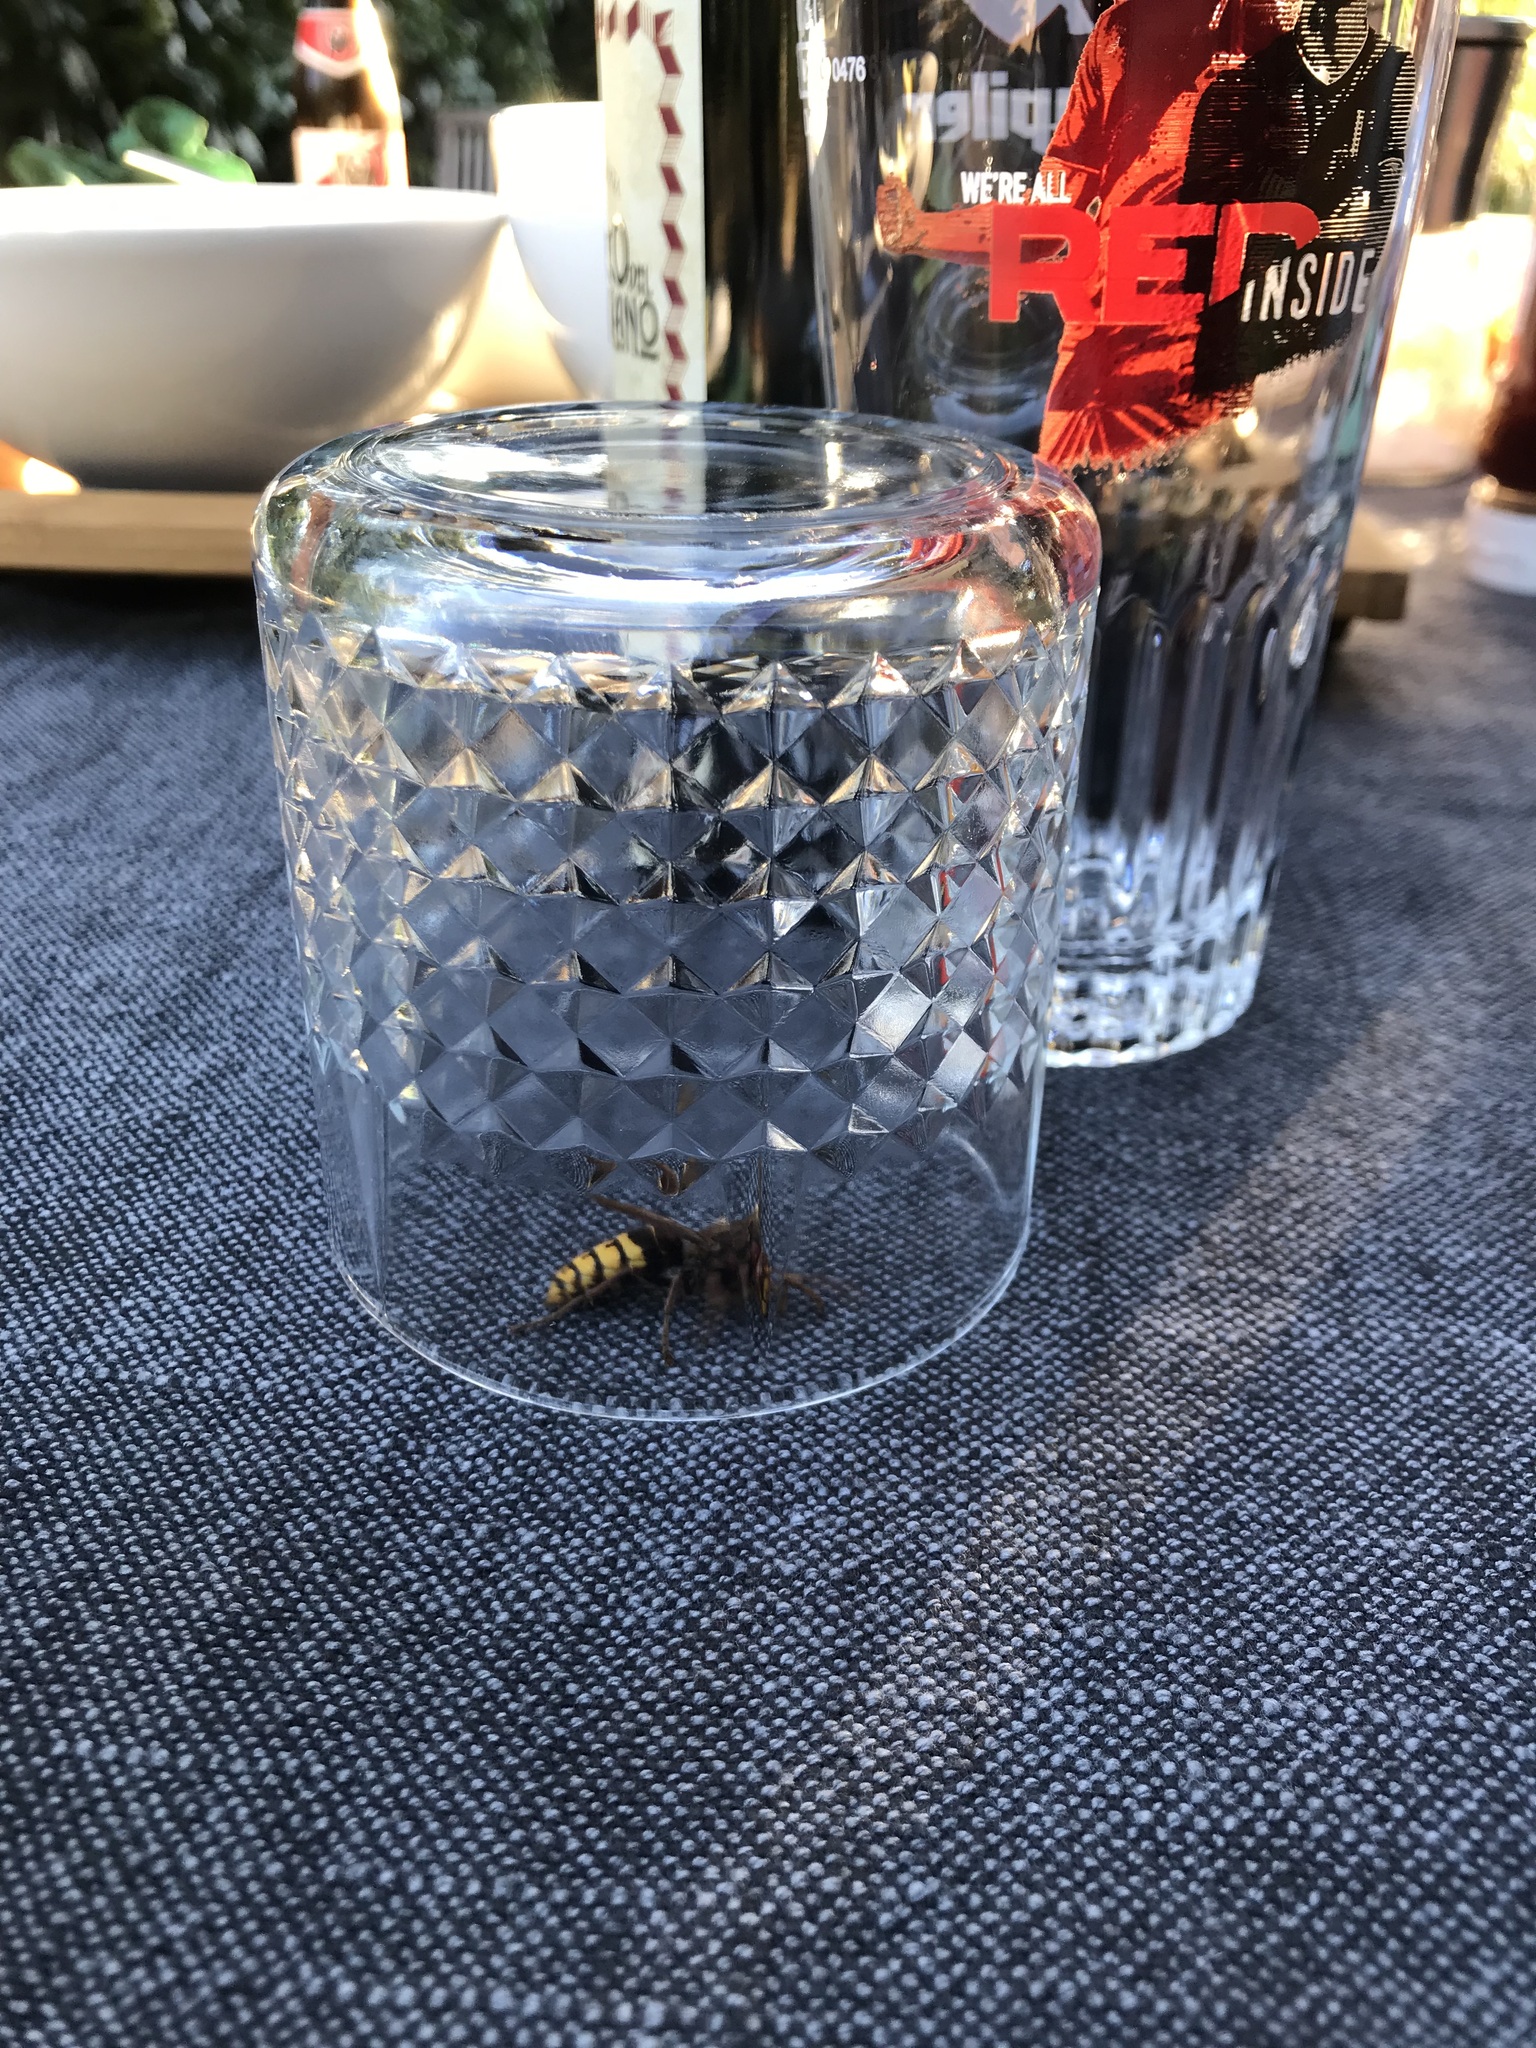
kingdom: Animalia
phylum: Arthropoda
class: Insecta
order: Hymenoptera
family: Vespidae
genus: Vespa
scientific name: Vespa crabro
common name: Hornet
